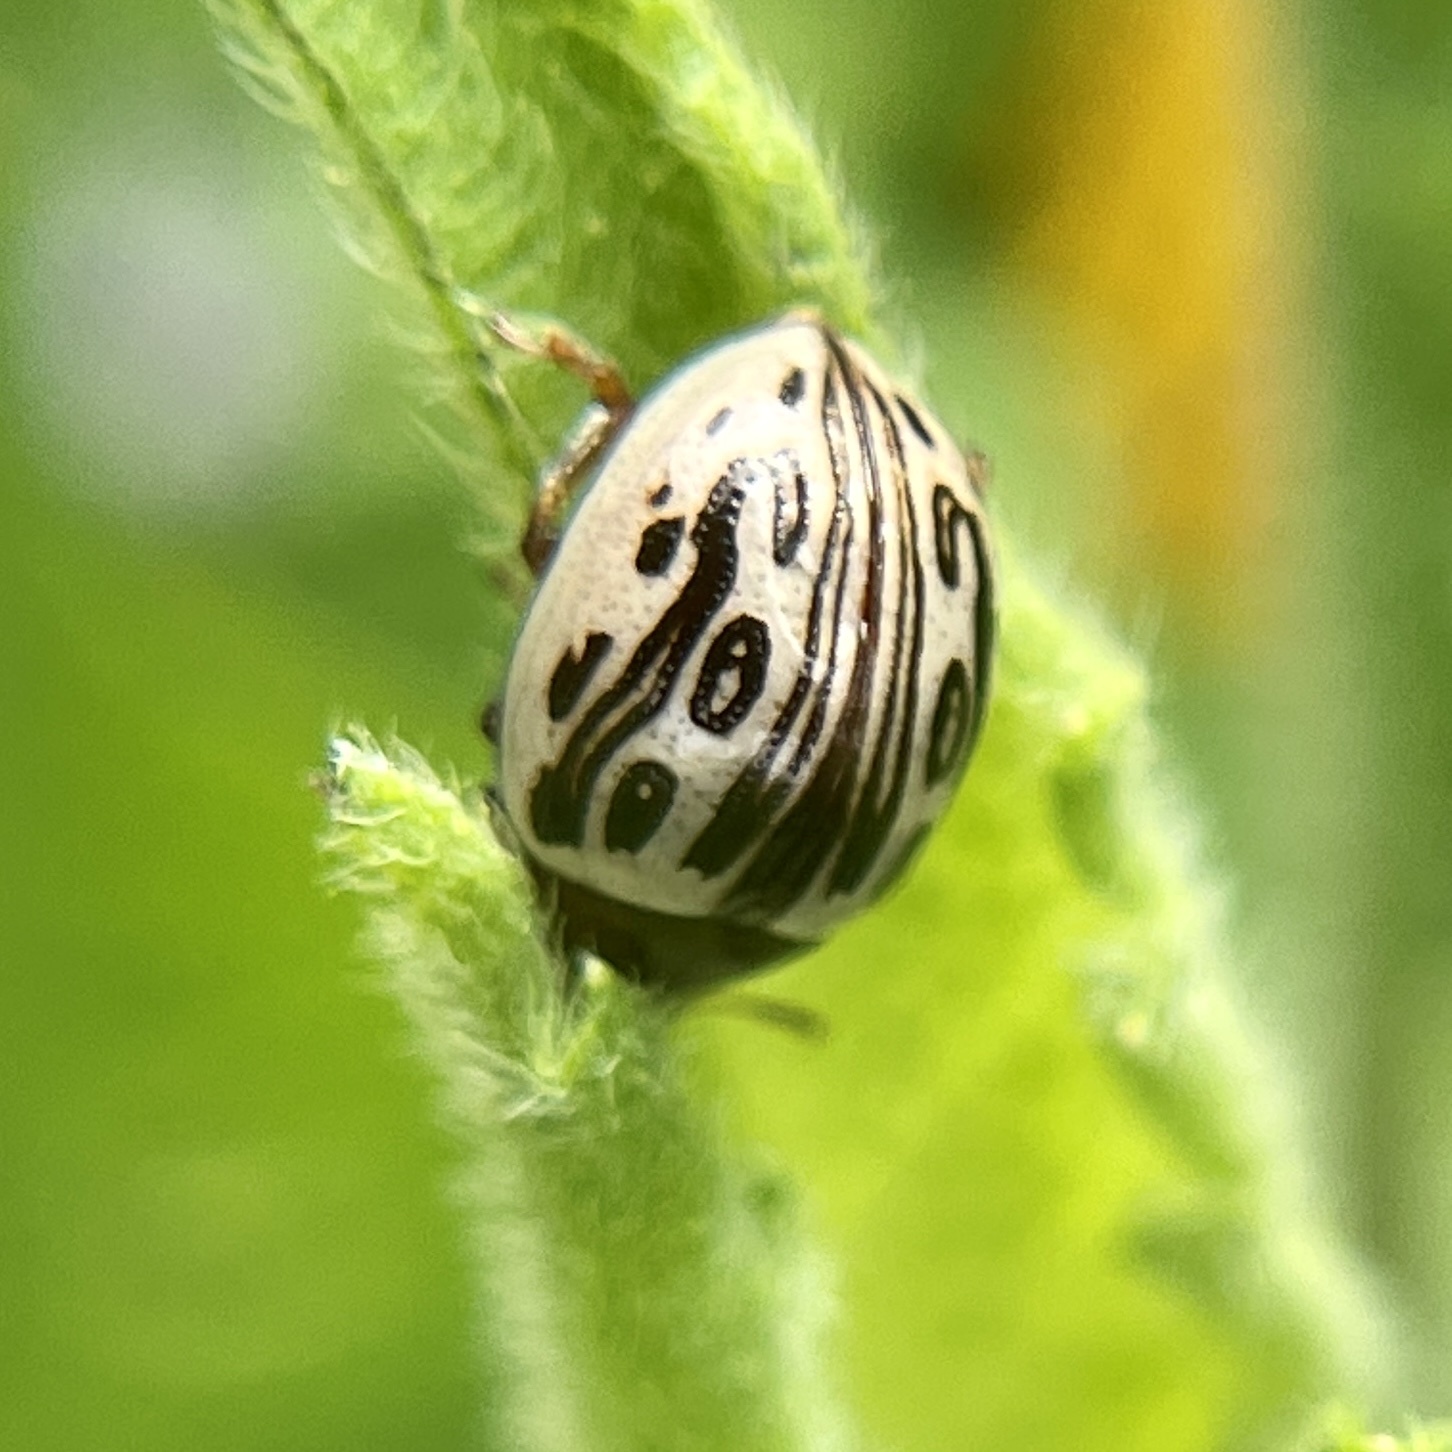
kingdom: Animalia
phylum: Arthropoda
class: Insecta
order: Coleoptera
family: Chrysomelidae
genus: Calligrapha
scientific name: Calligrapha
